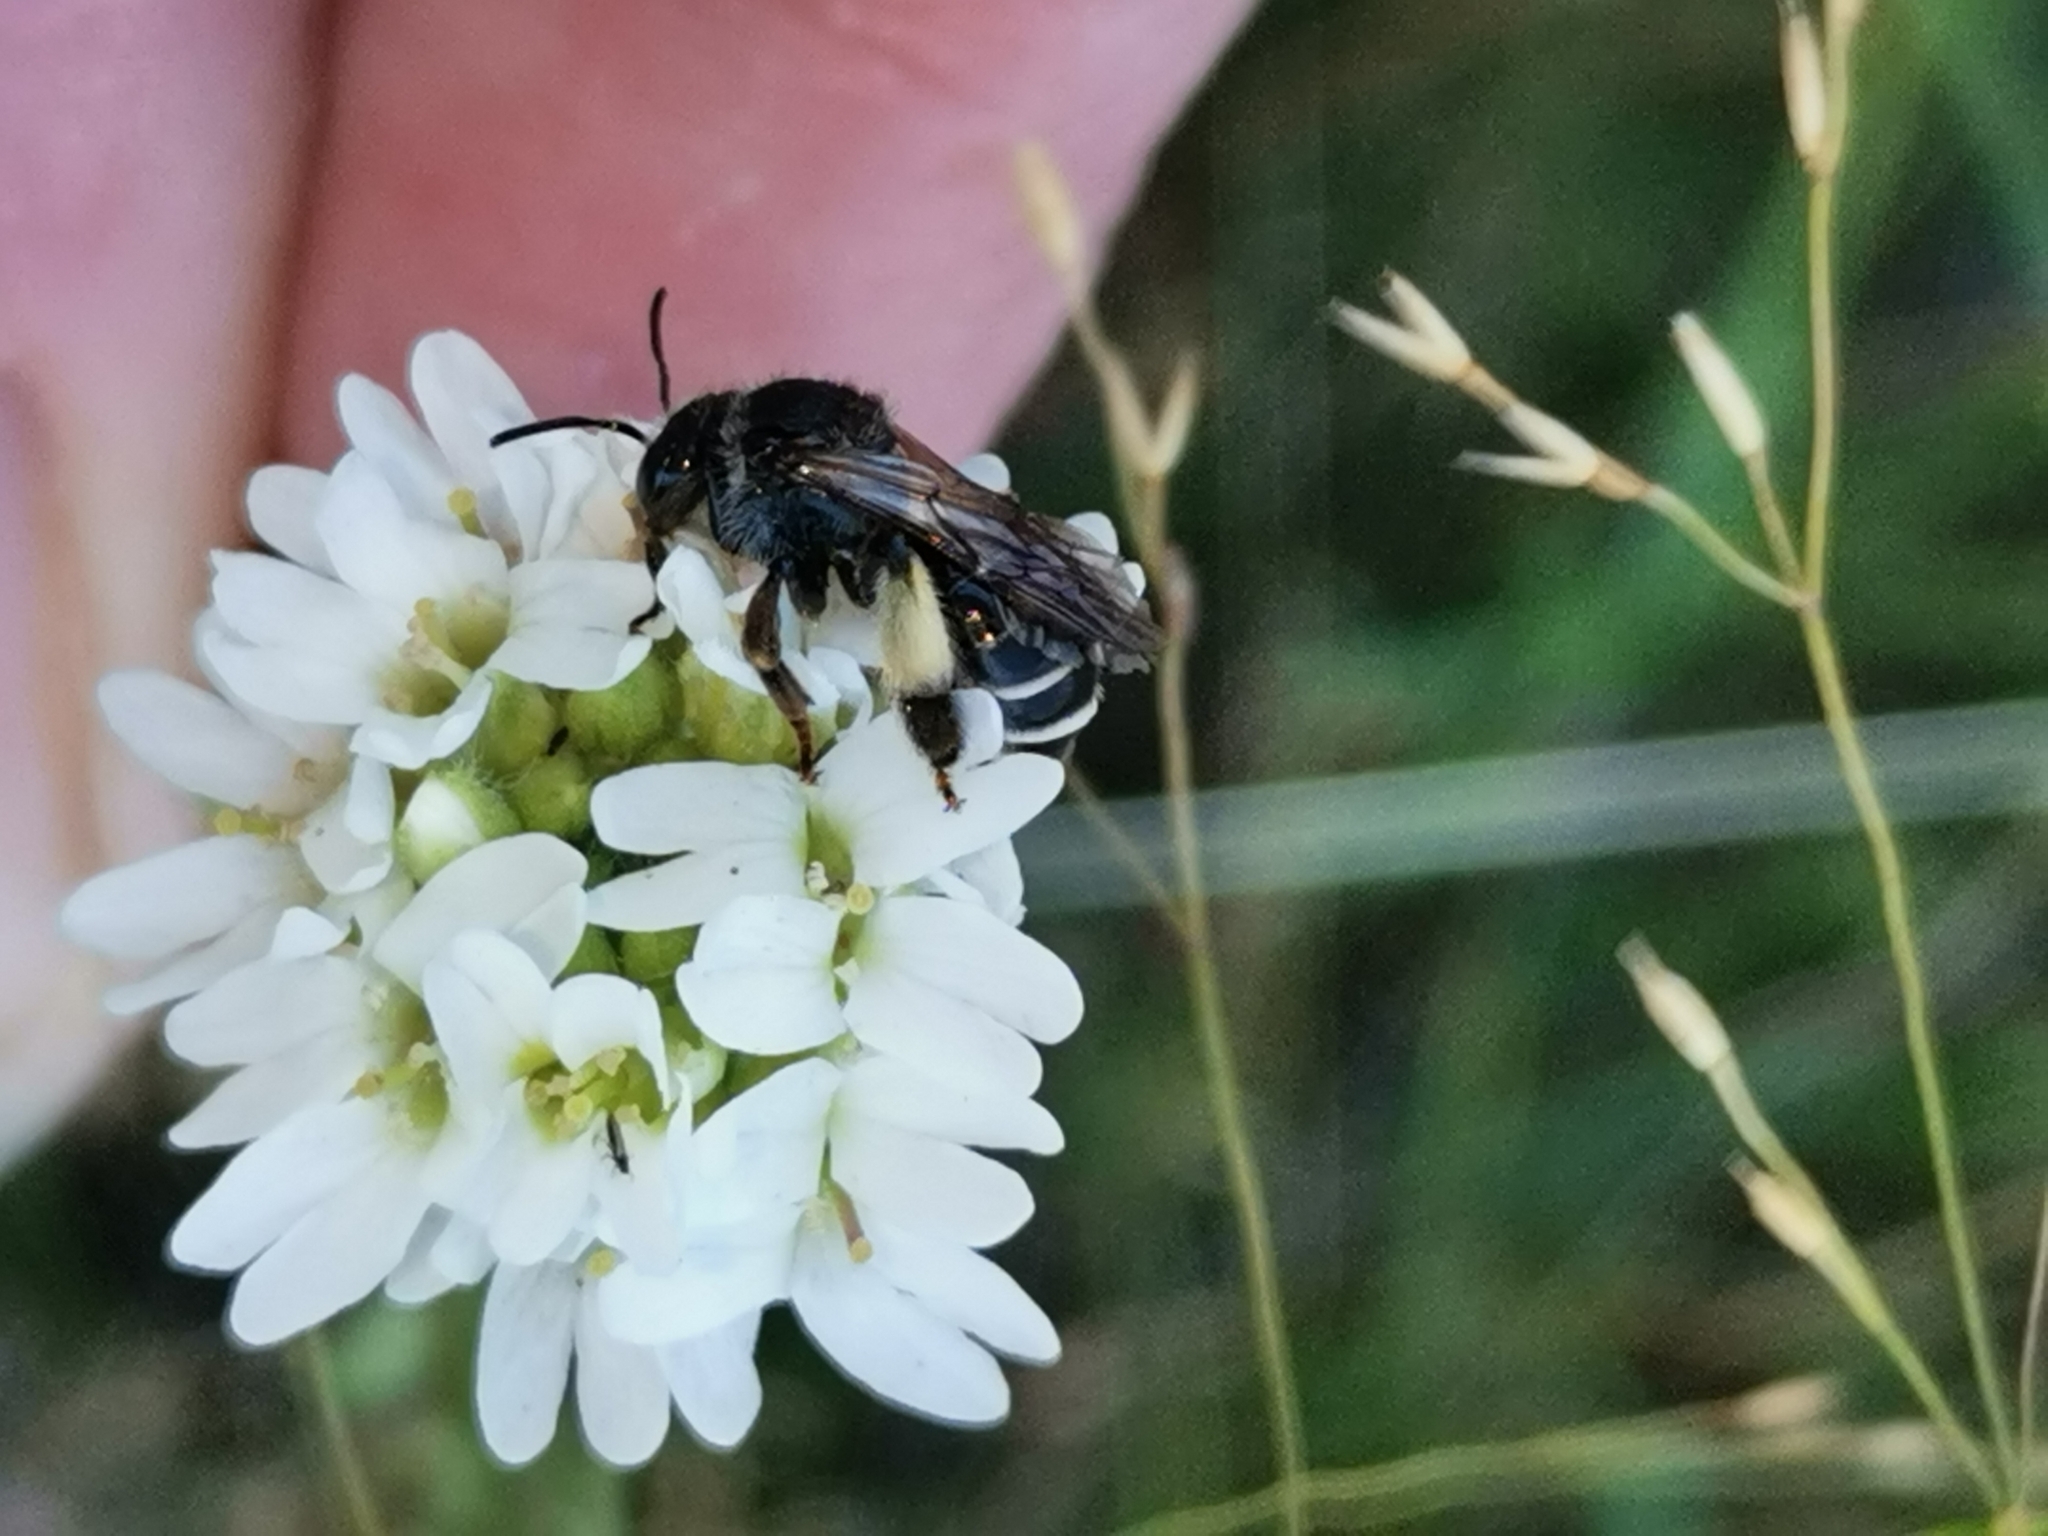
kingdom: Animalia
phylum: Arthropoda
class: Insecta
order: Hymenoptera
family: Melittidae
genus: Macropis
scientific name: Macropis europaea
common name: Yellow loosestrife bee
